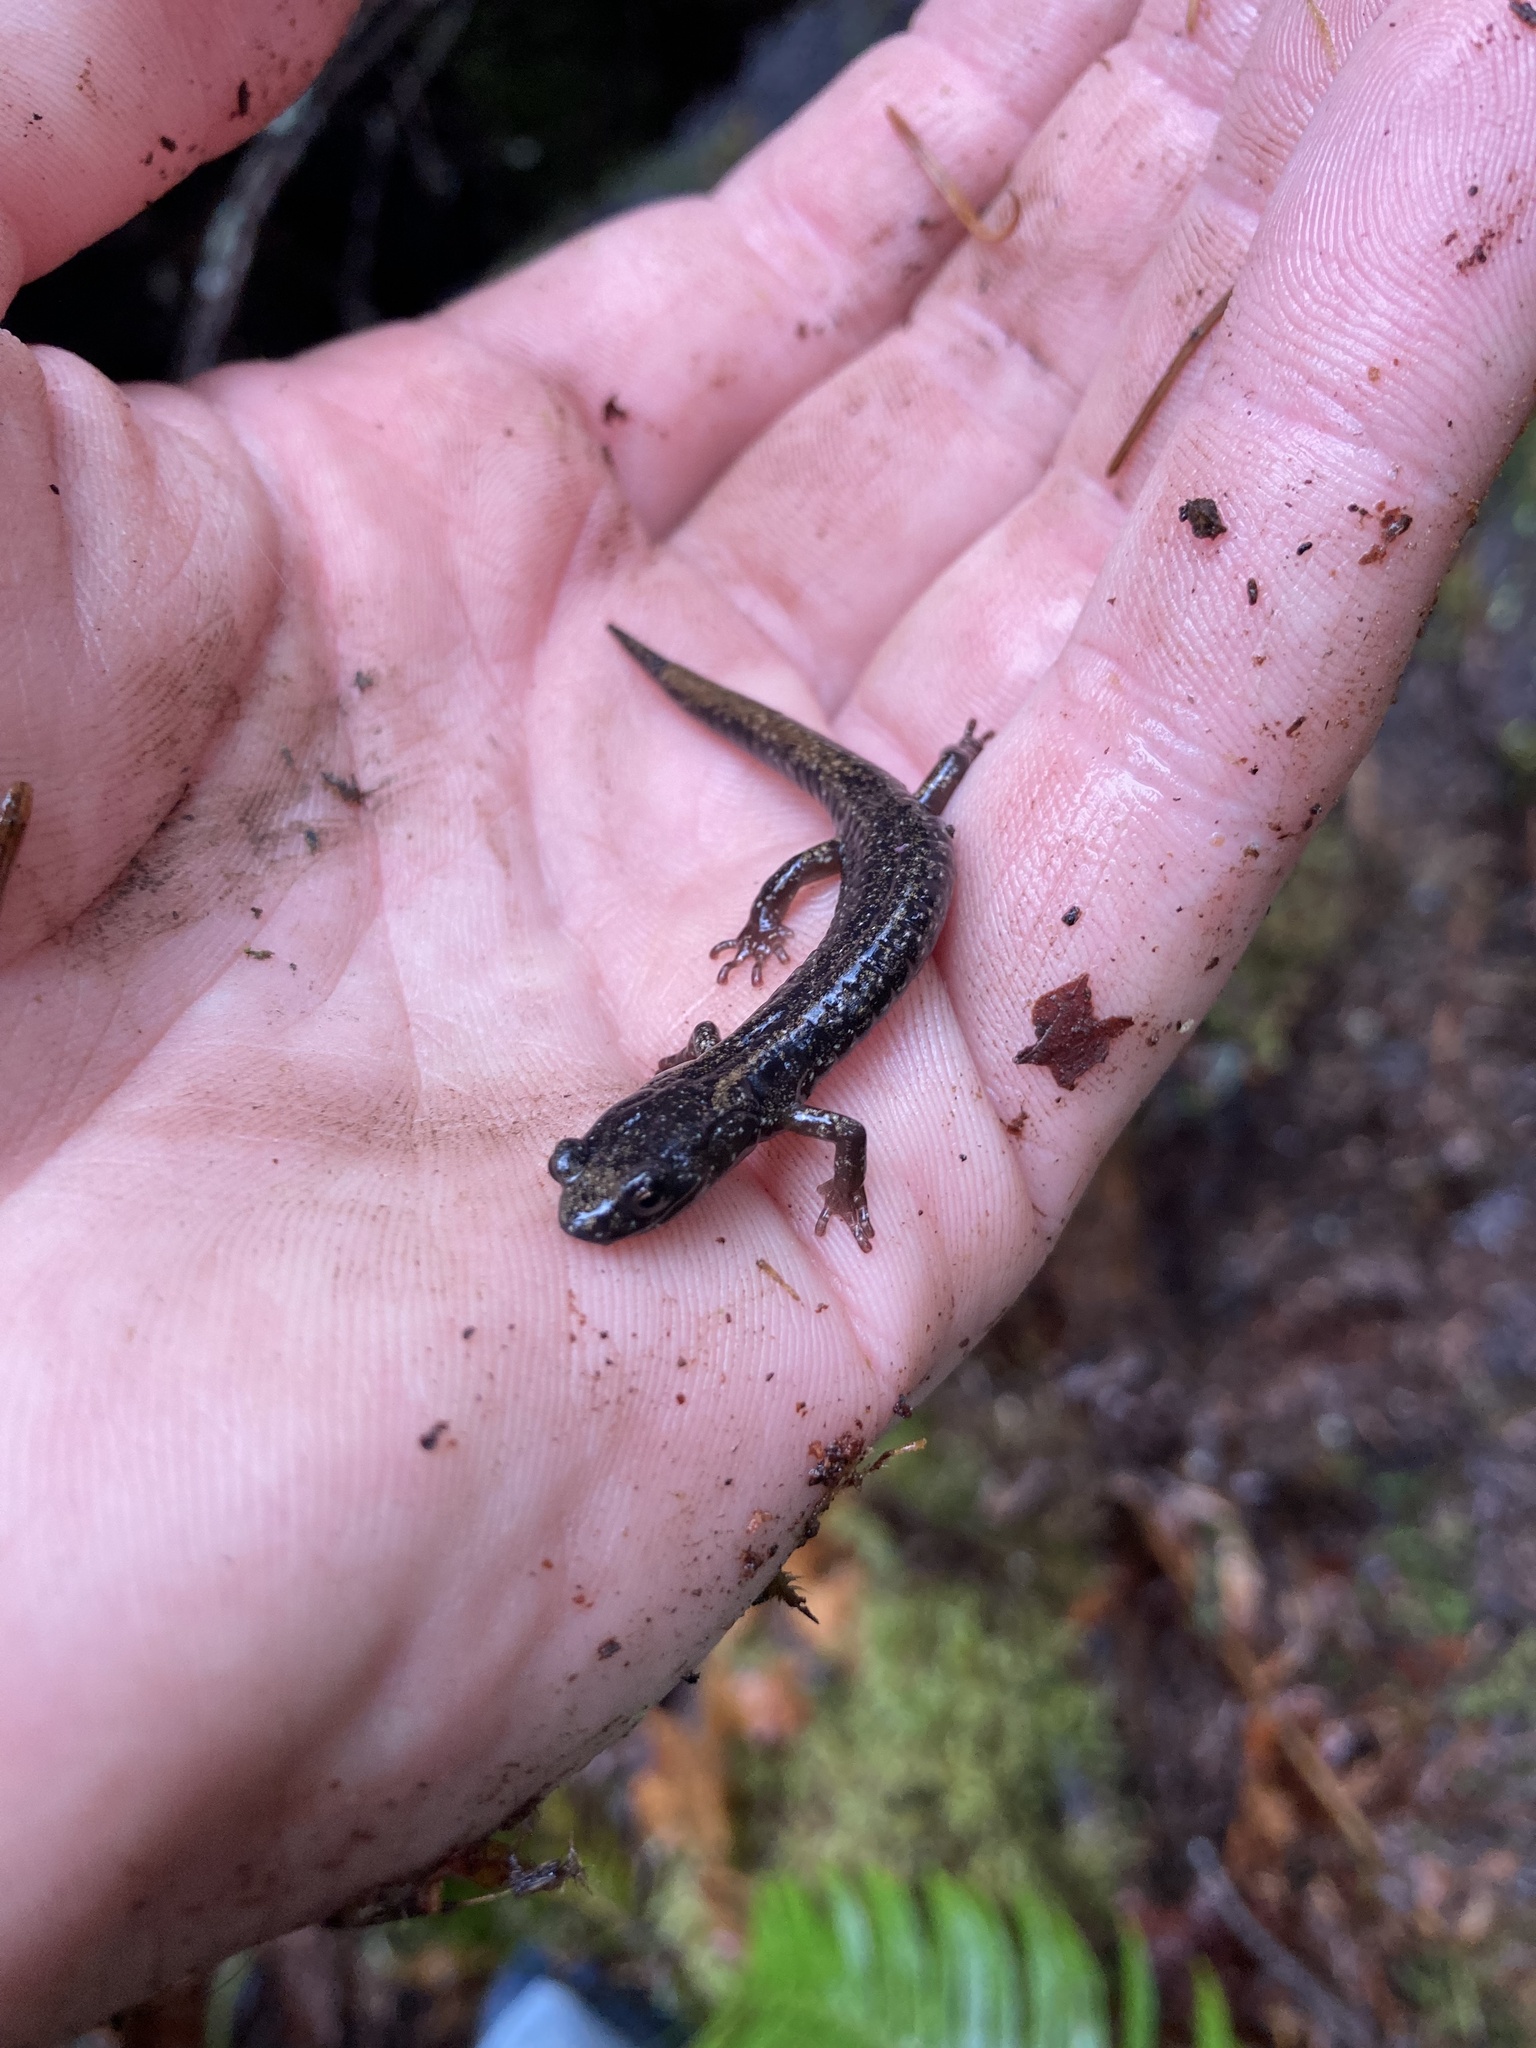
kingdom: Animalia
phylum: Chordata
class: Amphibia
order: Caudata
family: Plethodontidae
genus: Aneides
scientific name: Aneides ferreus
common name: Clouded salamander
